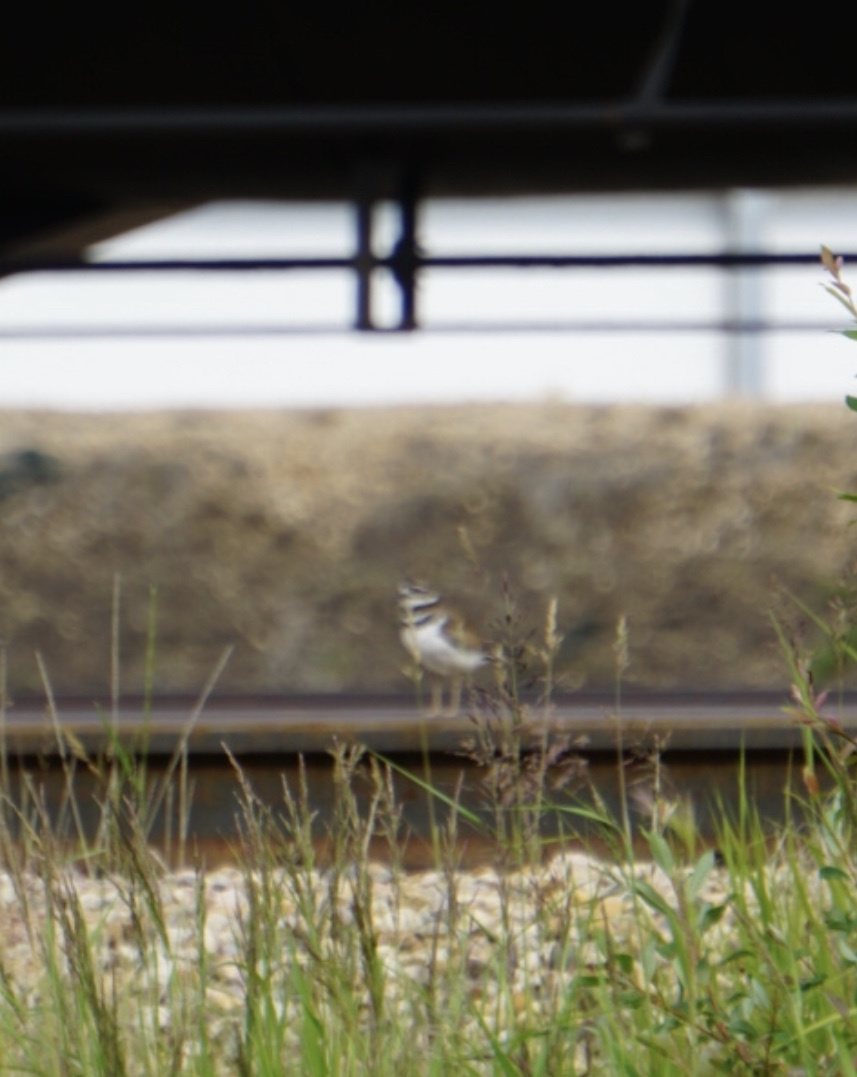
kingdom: Animalia
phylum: Chordata
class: Aves
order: Charadriiformes
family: Charadriidae
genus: Charadrius
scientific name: Charadrius vociferus
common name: Killdeer
